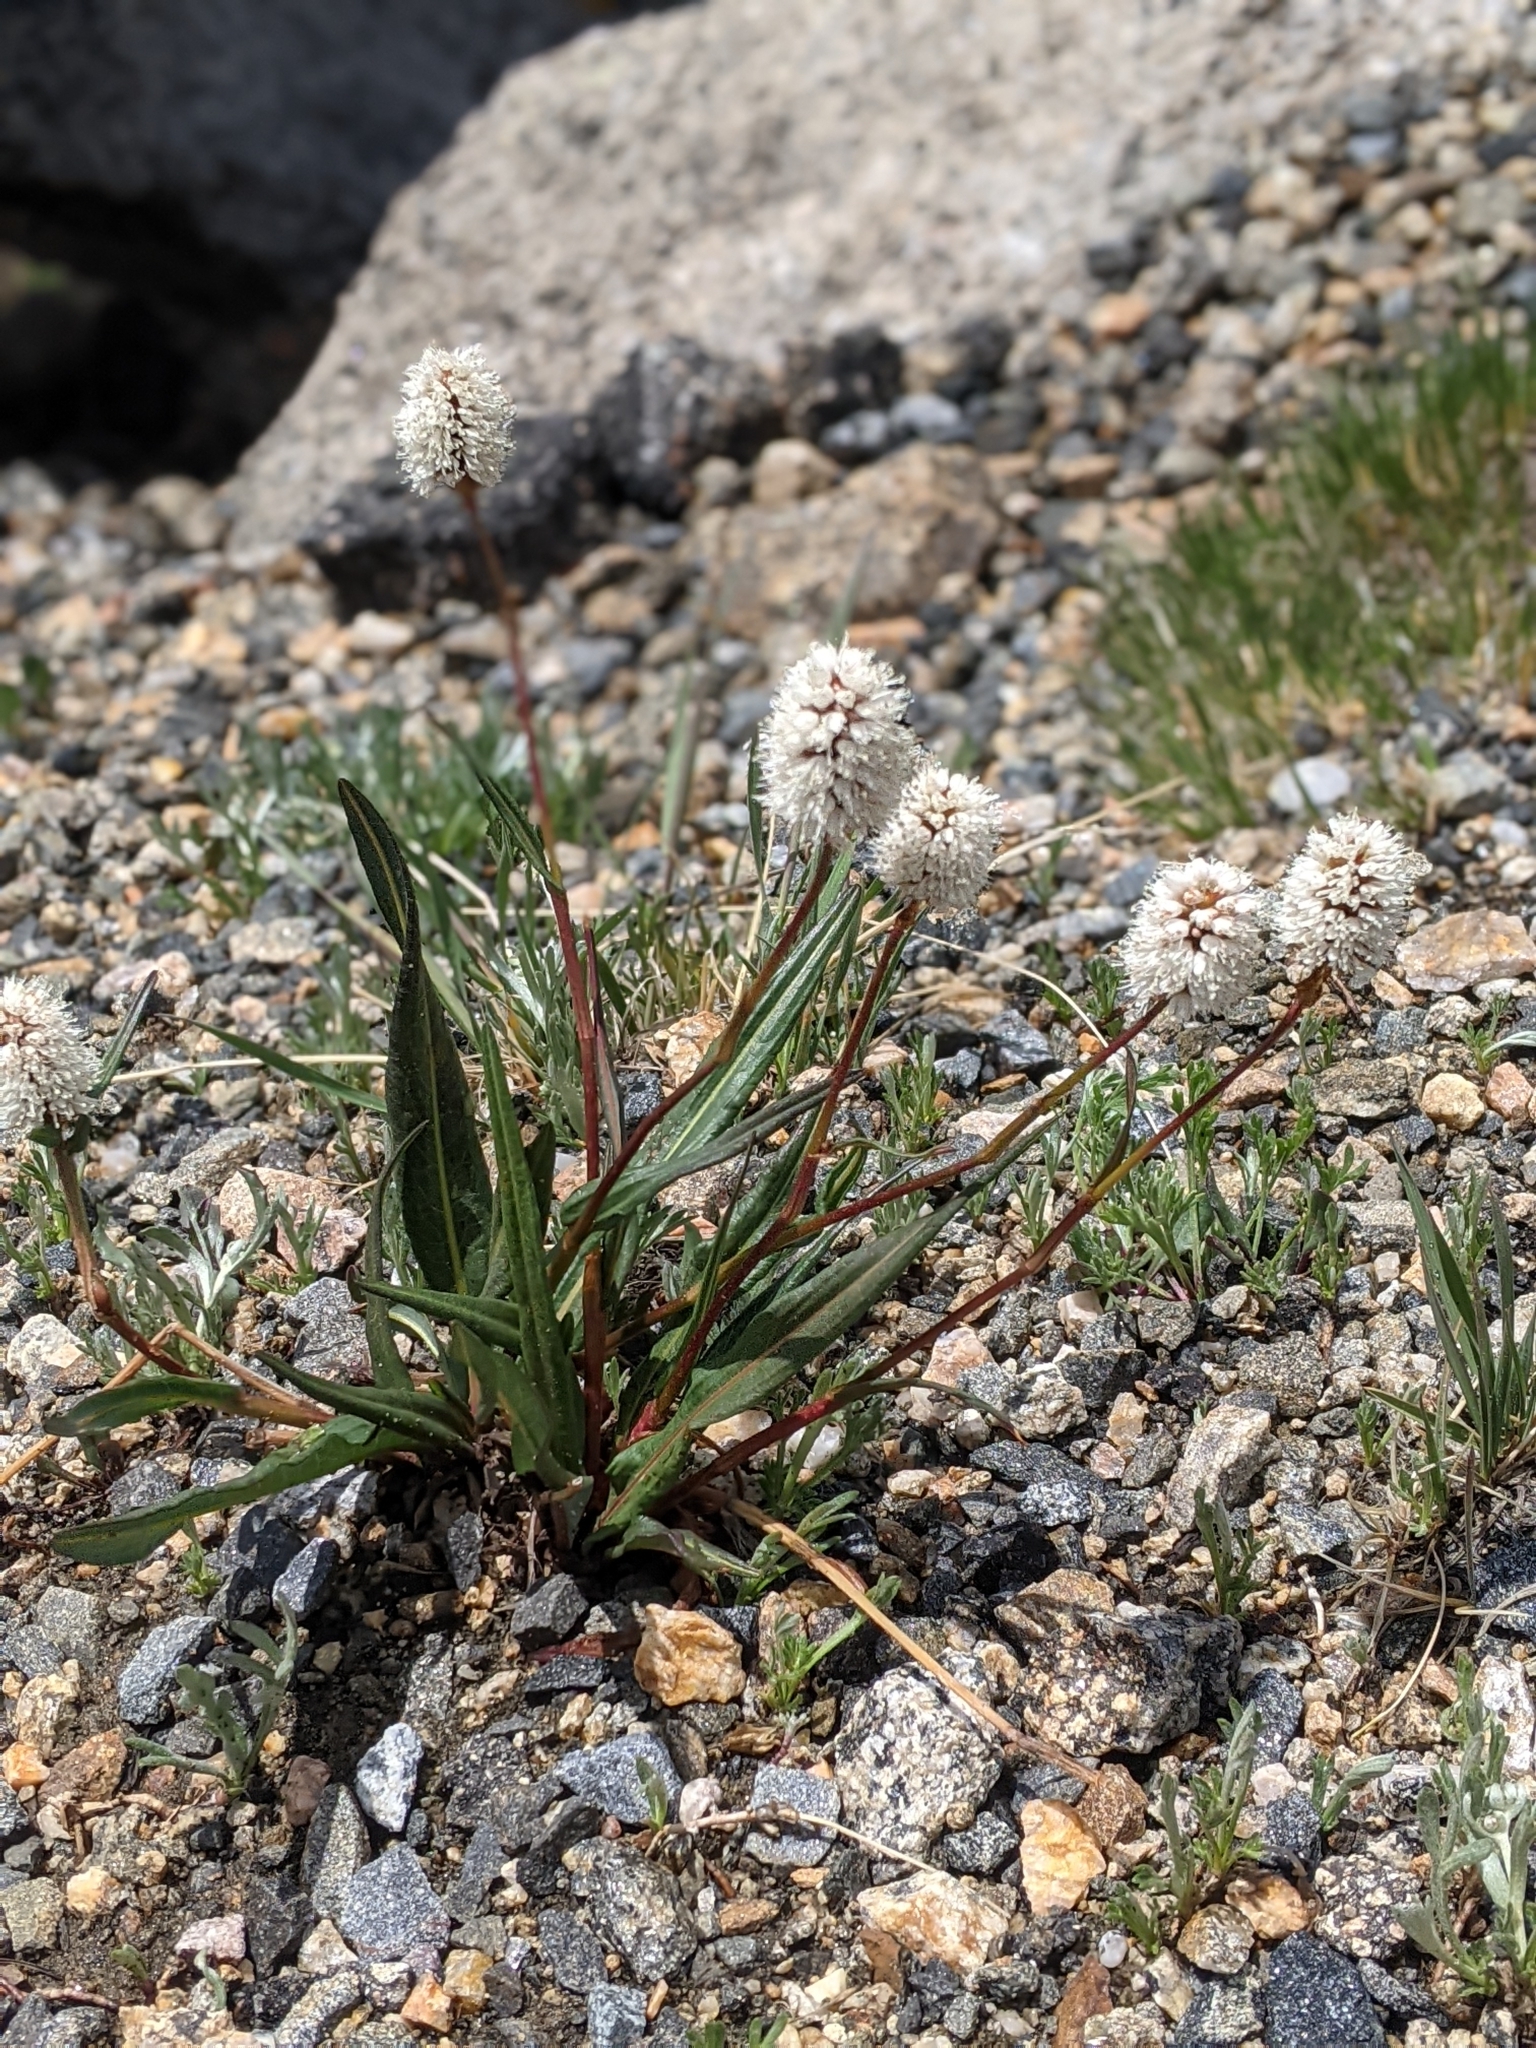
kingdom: Plantae
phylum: Tracheophyta
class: Magnoliopsida
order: Caryophyllales
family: Polygonaceae
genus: Bistorta
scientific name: Bistorta bistortoides
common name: American bistort
